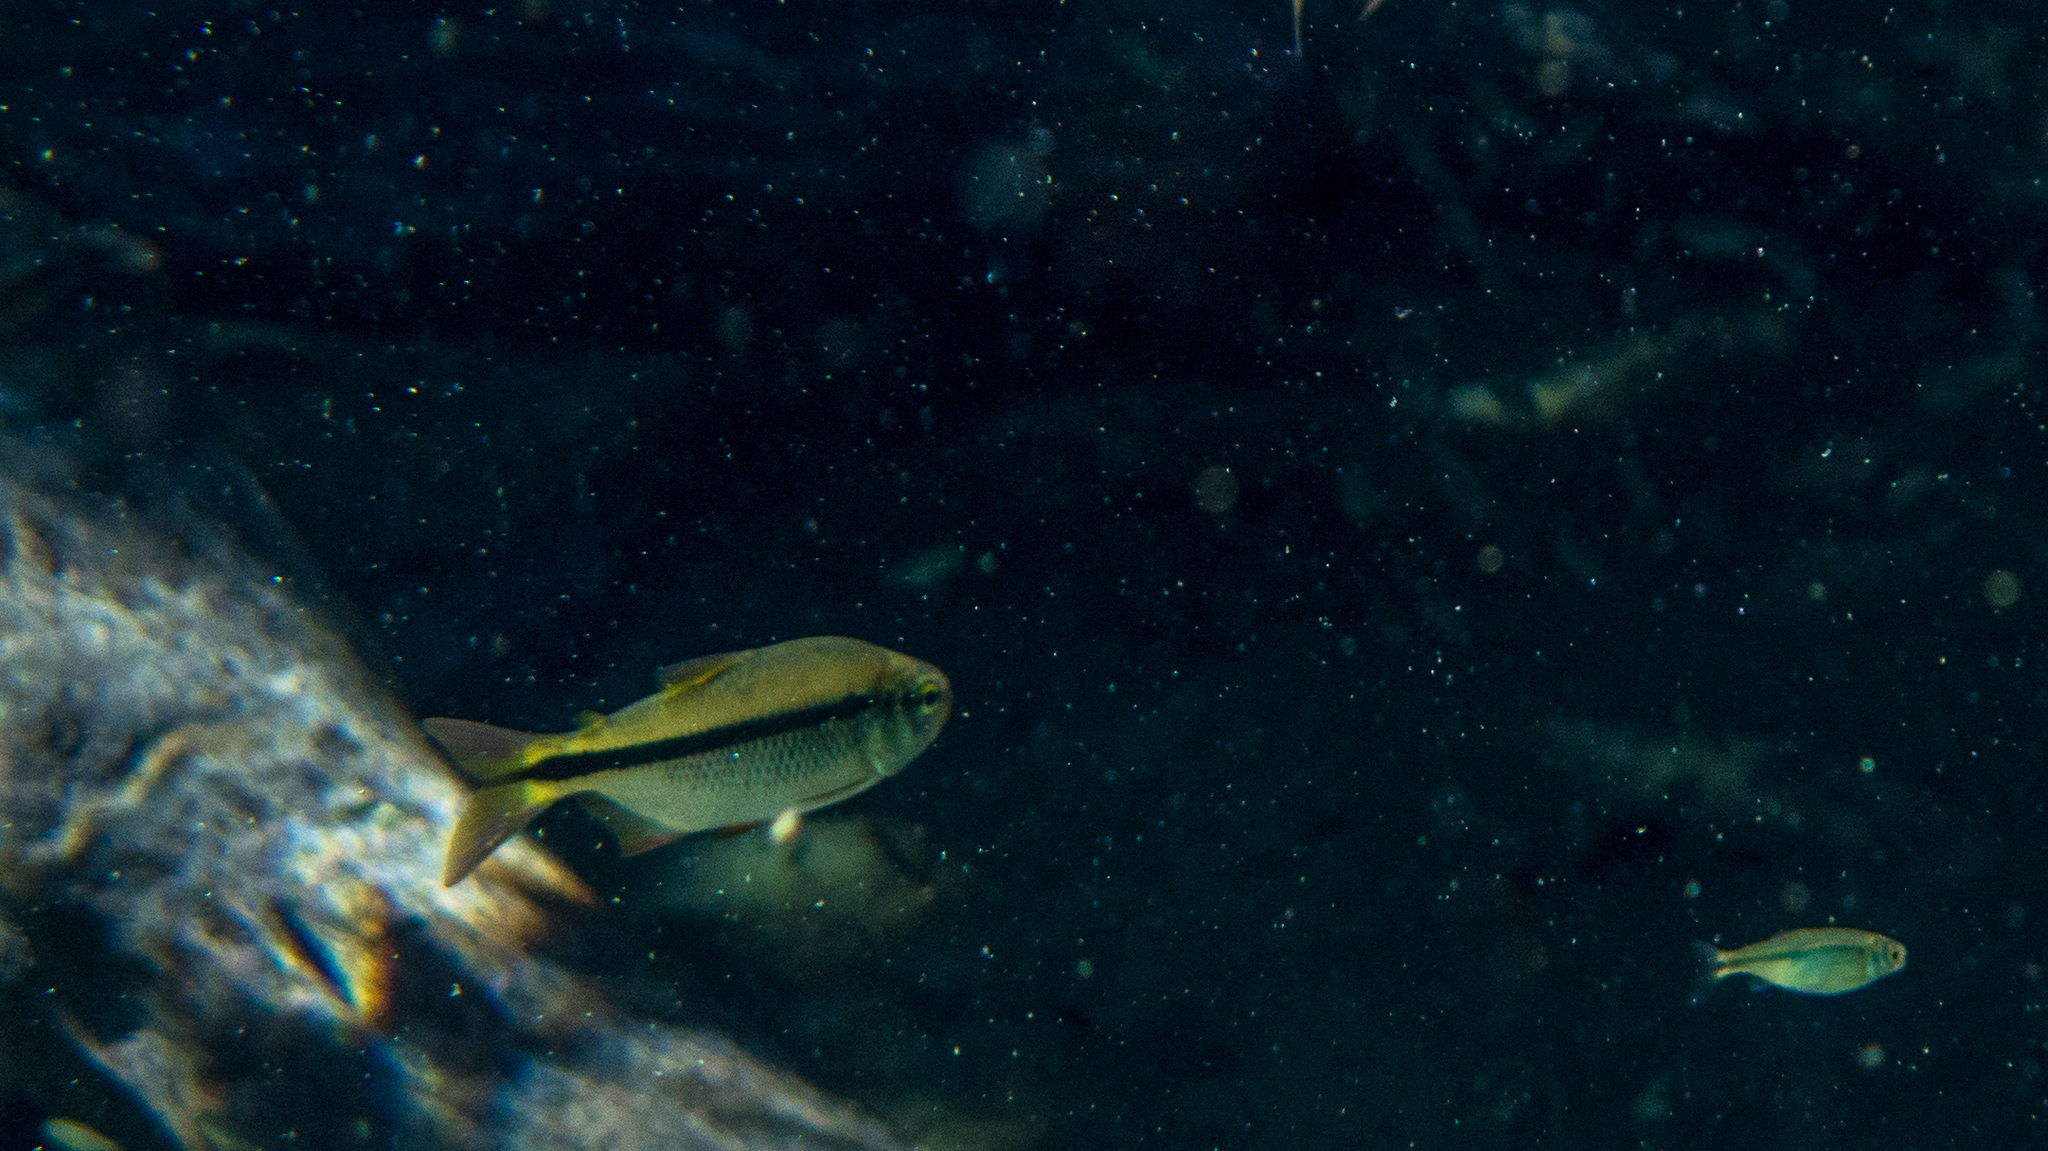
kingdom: Animalia
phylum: Chordata
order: Characiformes
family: Characidae
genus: Astyanax
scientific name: Astyanax novae
